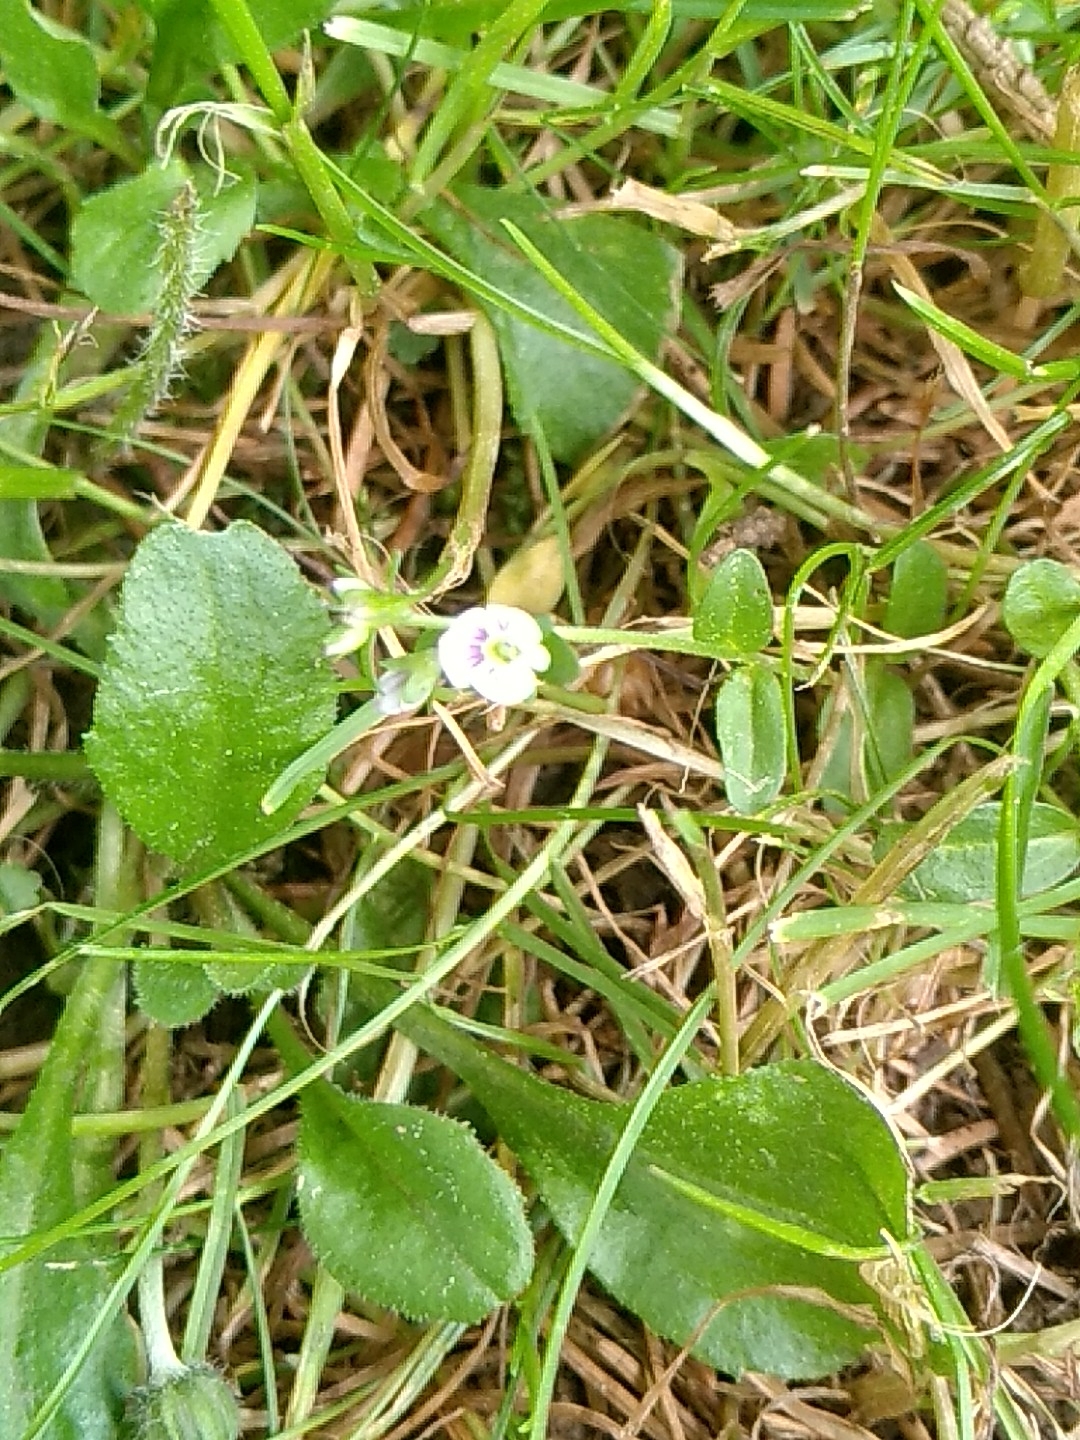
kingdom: Plantae
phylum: Tracheophyta
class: Magnoliopsida
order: Lamiales
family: Plantaginaceae
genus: Veronica
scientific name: Veronica serpyllifolia
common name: Thyme-leaved speedwell
